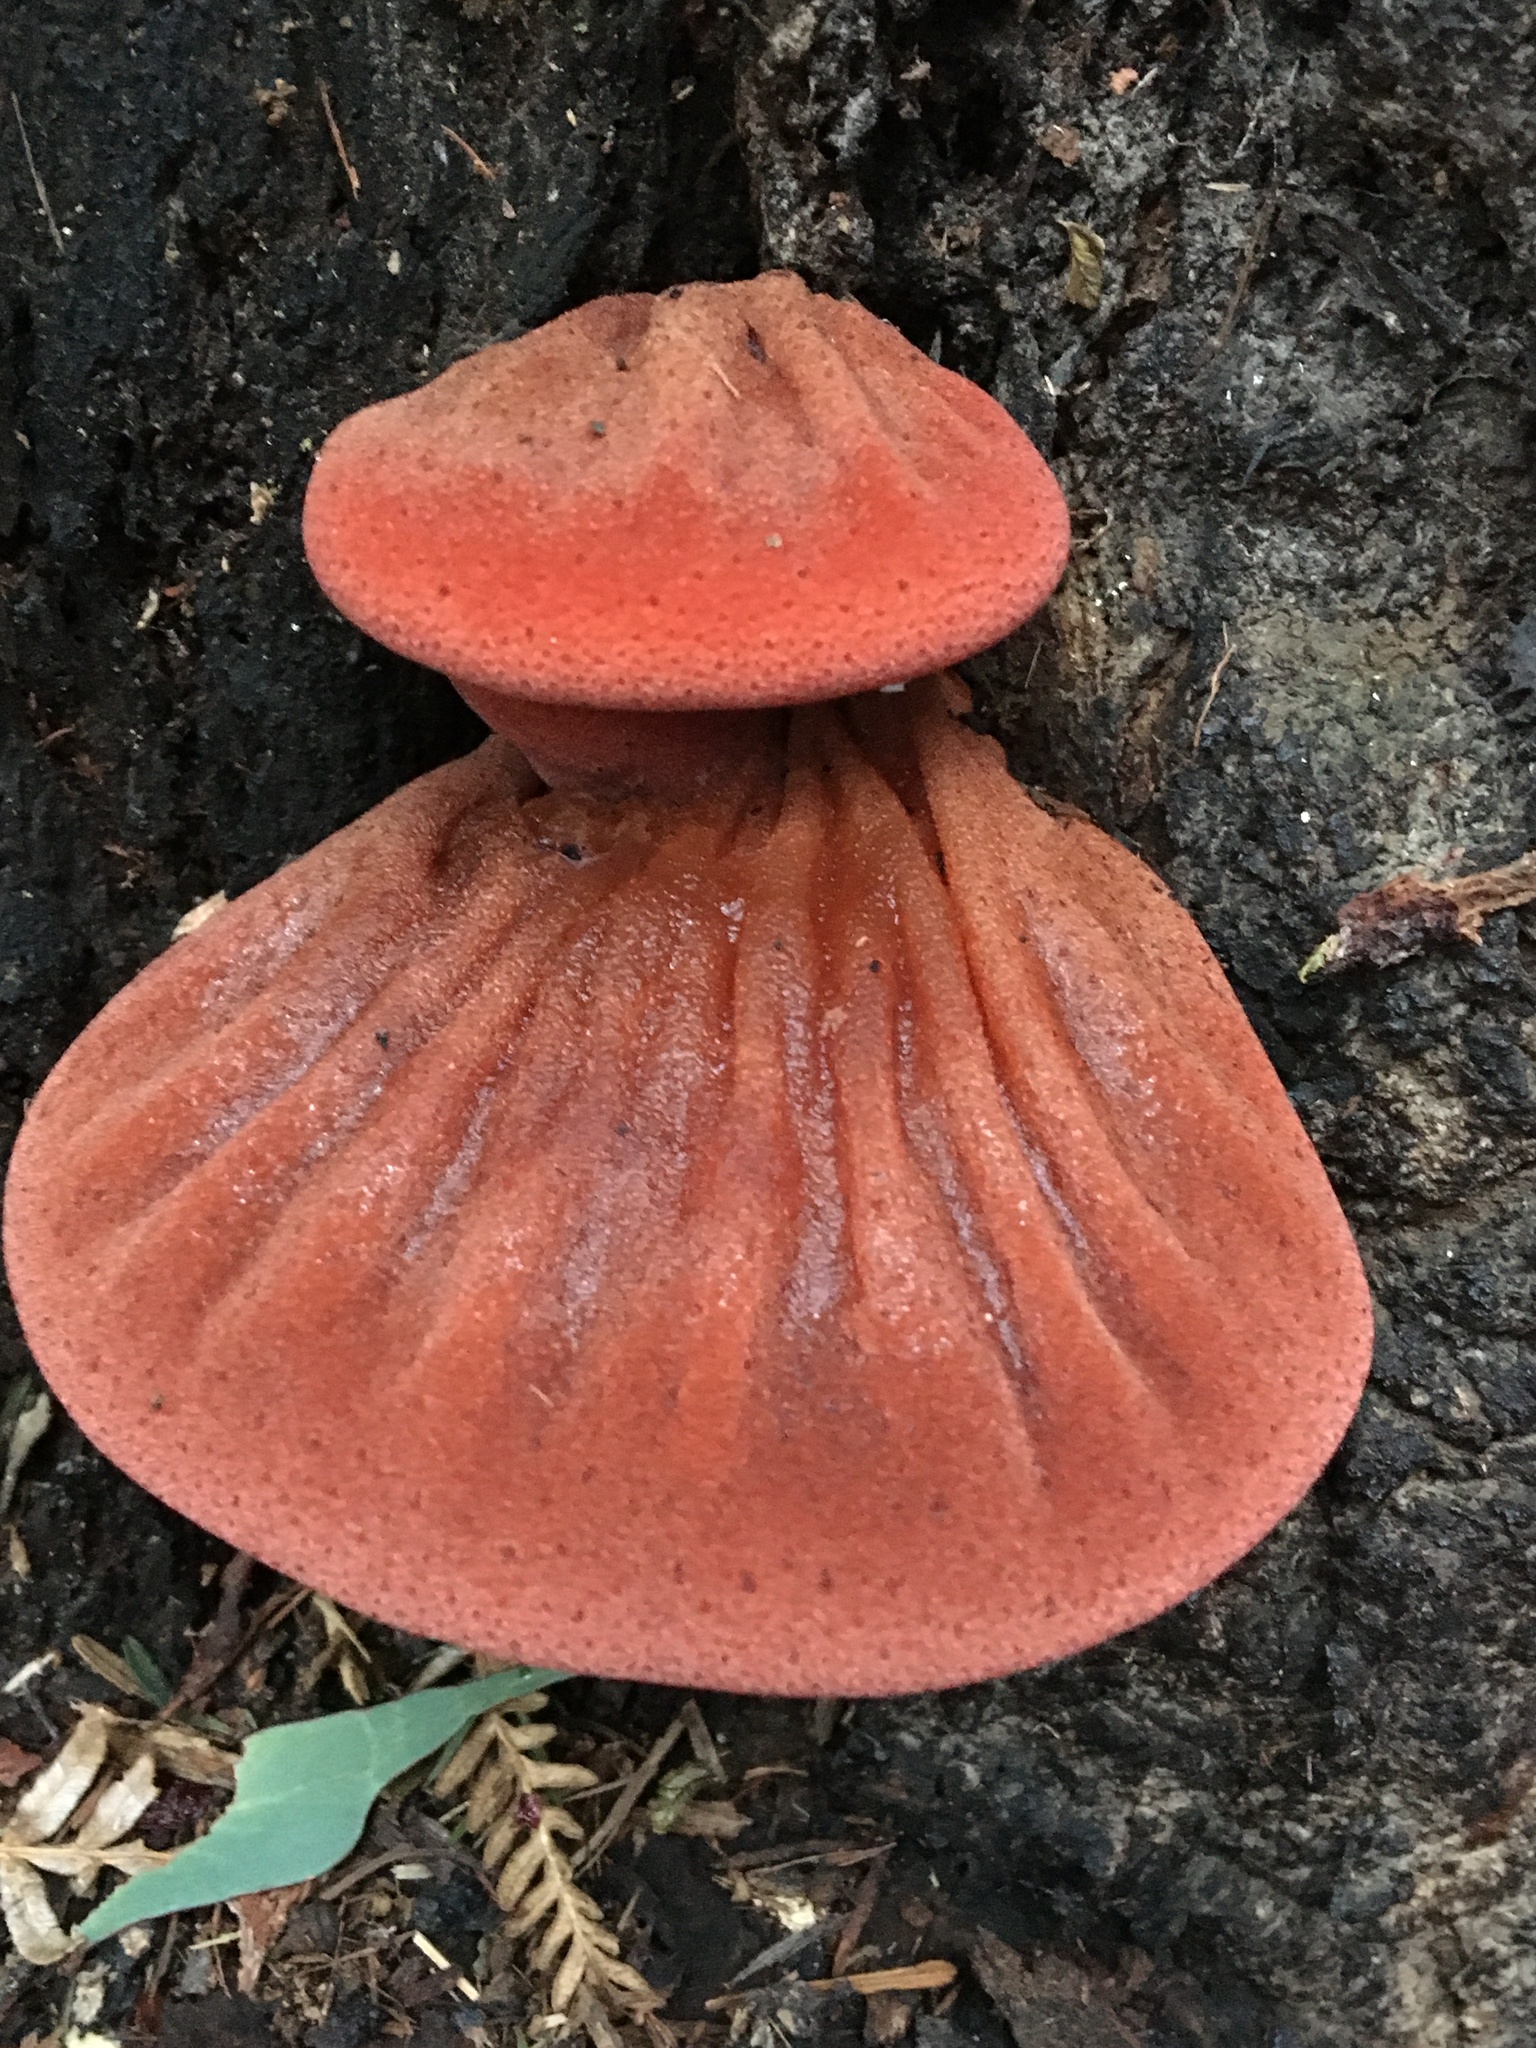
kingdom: Fungi
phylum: Basidiomycota
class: Agaricomycetes
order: Agaricales
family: Fistulinaceae
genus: Fistulina
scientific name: Fistulina spiculifera
